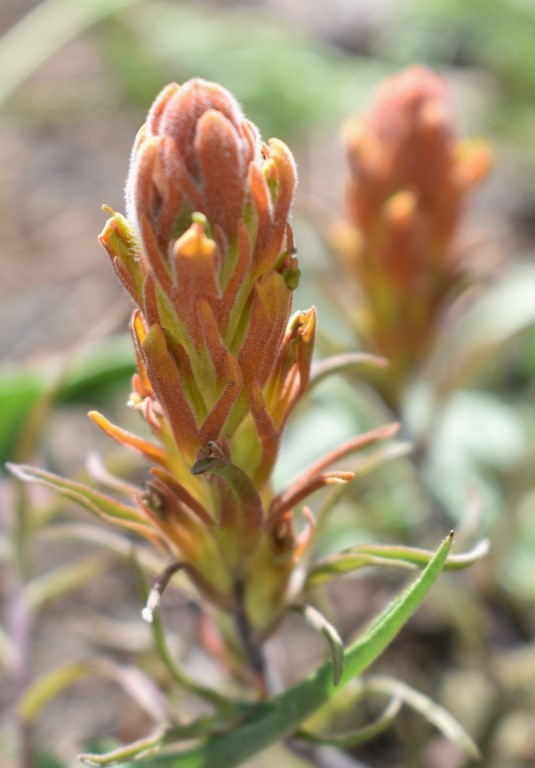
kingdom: Plantae
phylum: Tracheophyta
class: Magnoliopsida
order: Lamiales
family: Orobanchaceae
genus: Castilleja
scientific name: Castilleja arachnoidea
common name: Cobwebby indian paintbrush
